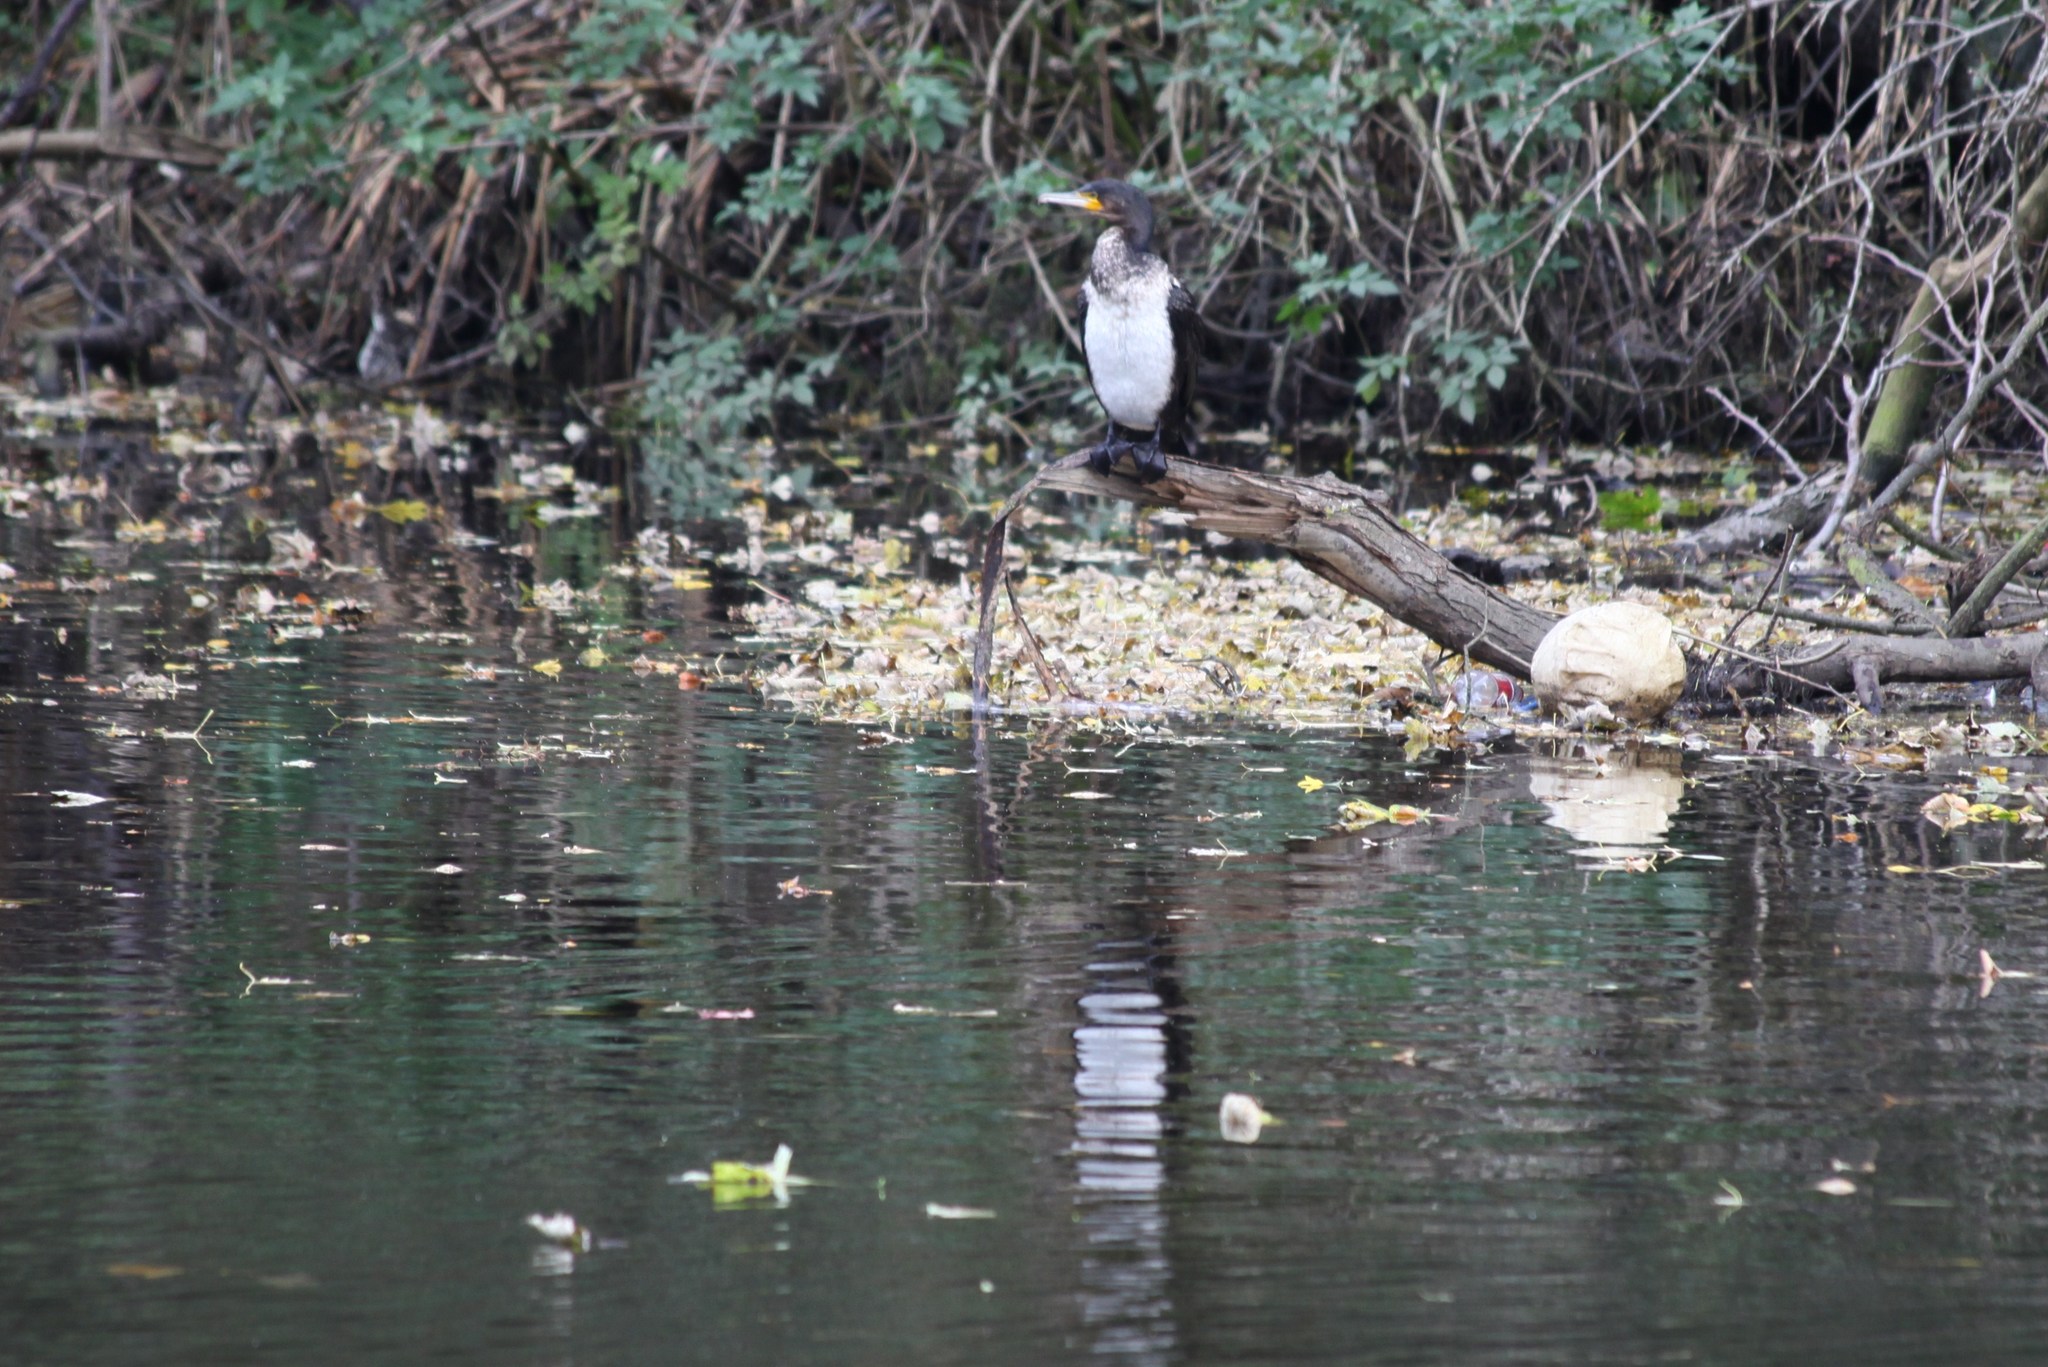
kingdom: Animalia
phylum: Chordata
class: Aves
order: Suliformes
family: Phalacrocoracidae
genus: Phalacrocorax
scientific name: Phalacrocorax carbo
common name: Great cormorant
